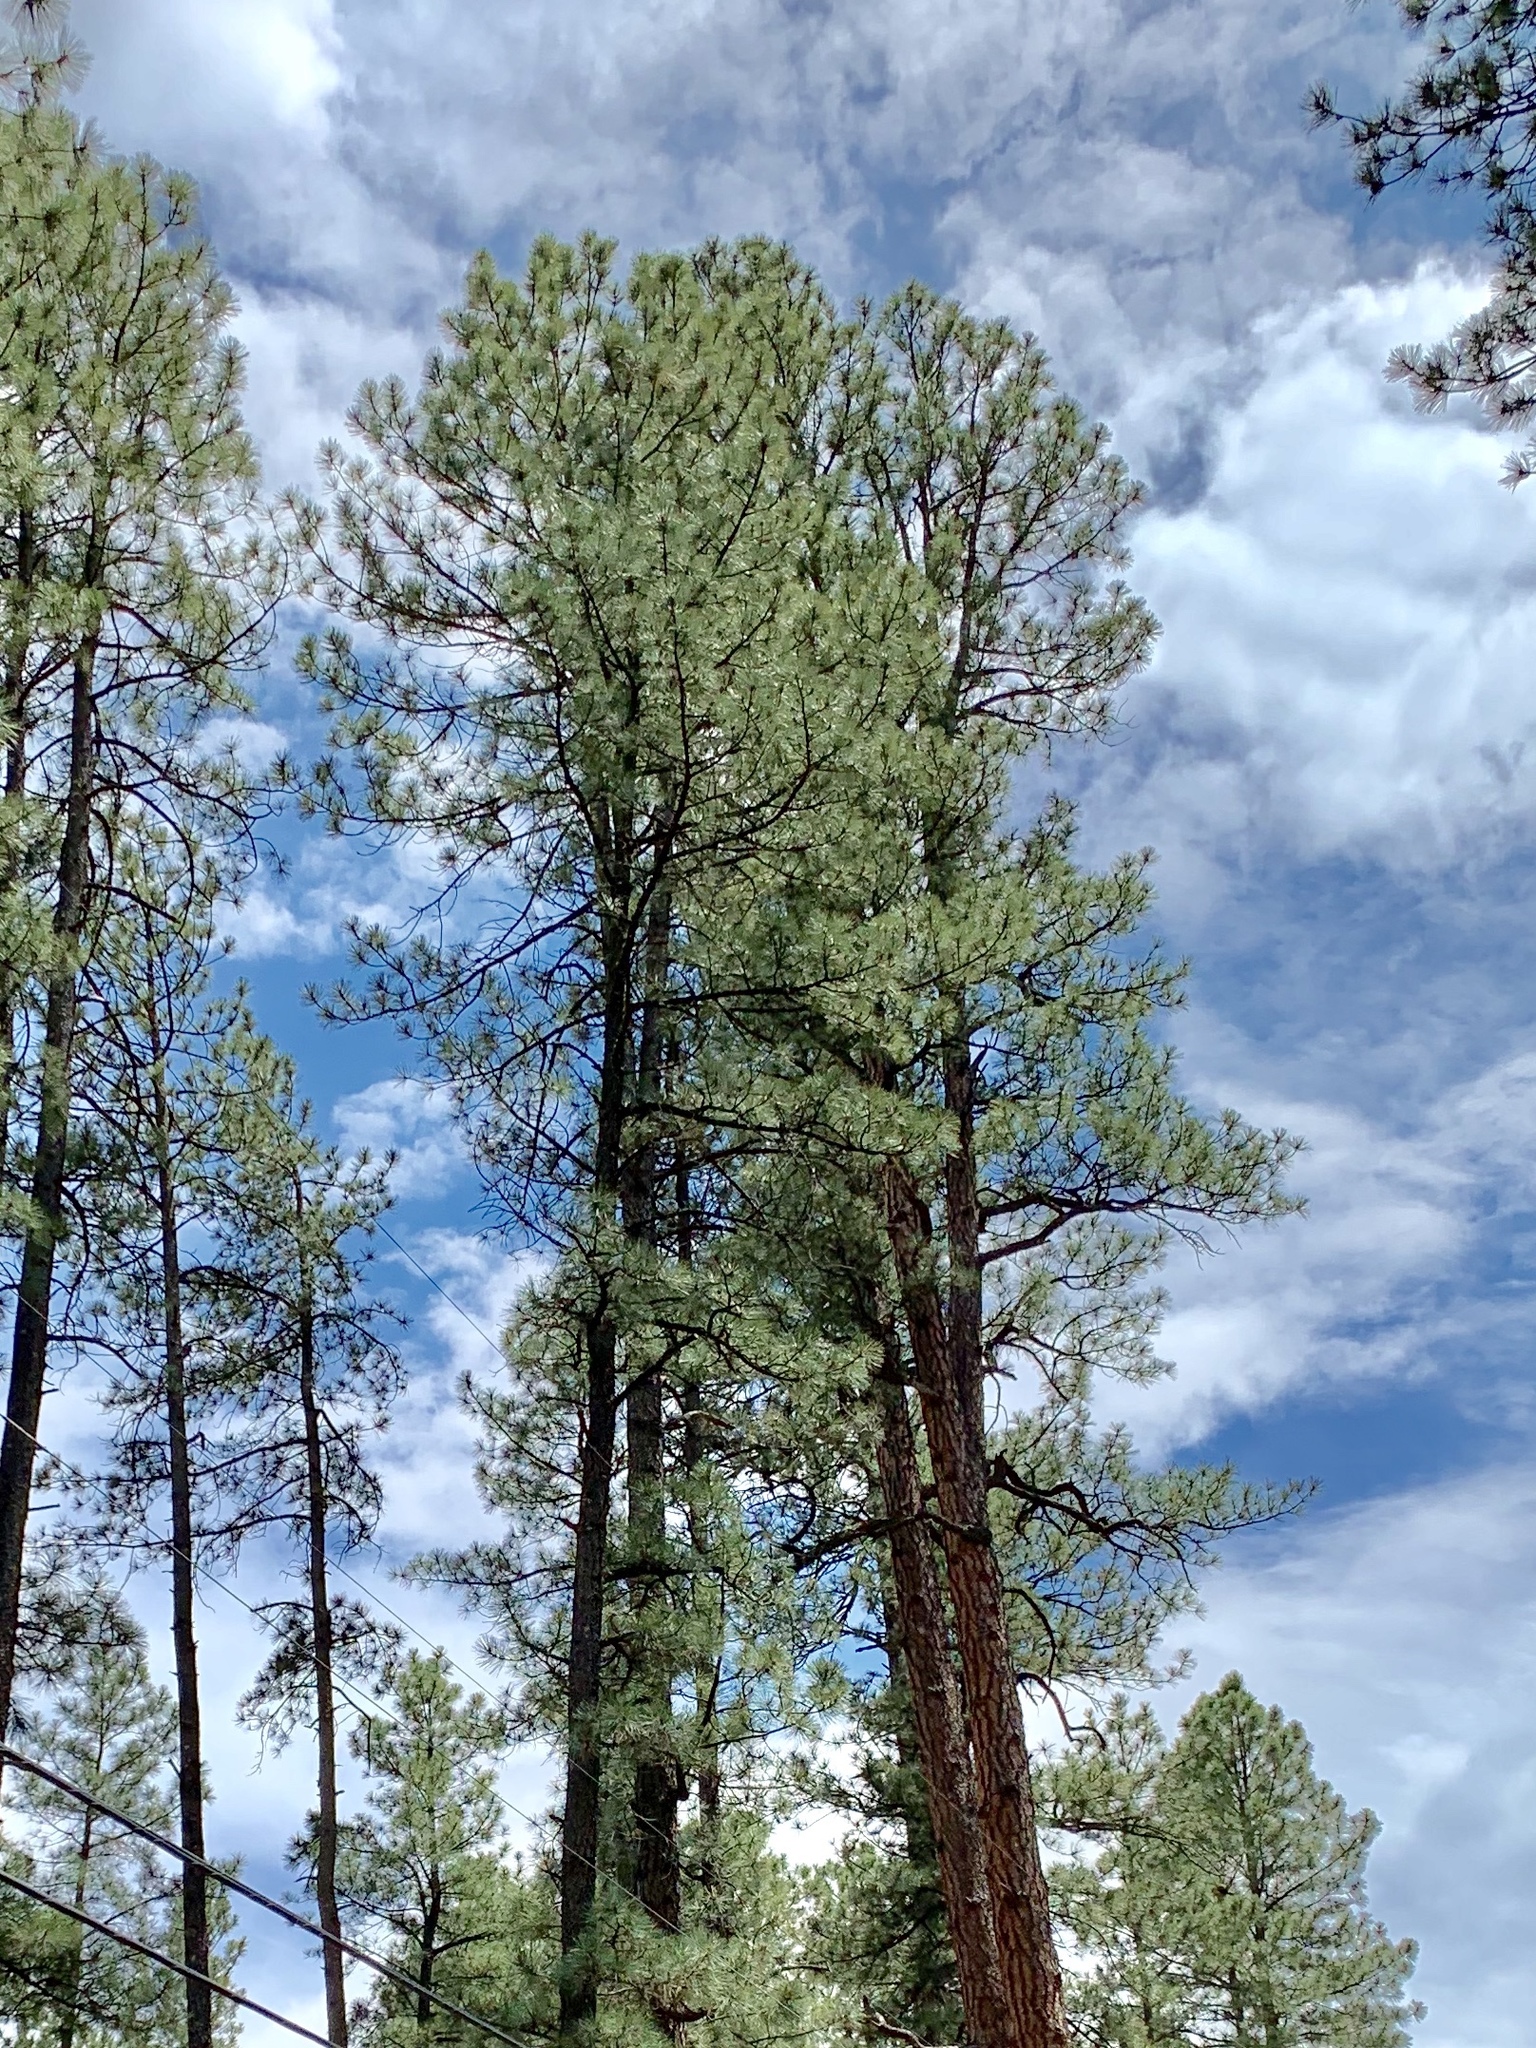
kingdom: Plantae
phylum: Tracheophyta
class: Pinopsida
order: Pinales
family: Pinaceae
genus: Pinus
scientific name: Pinus ponderosa
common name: Western yellow-pine
